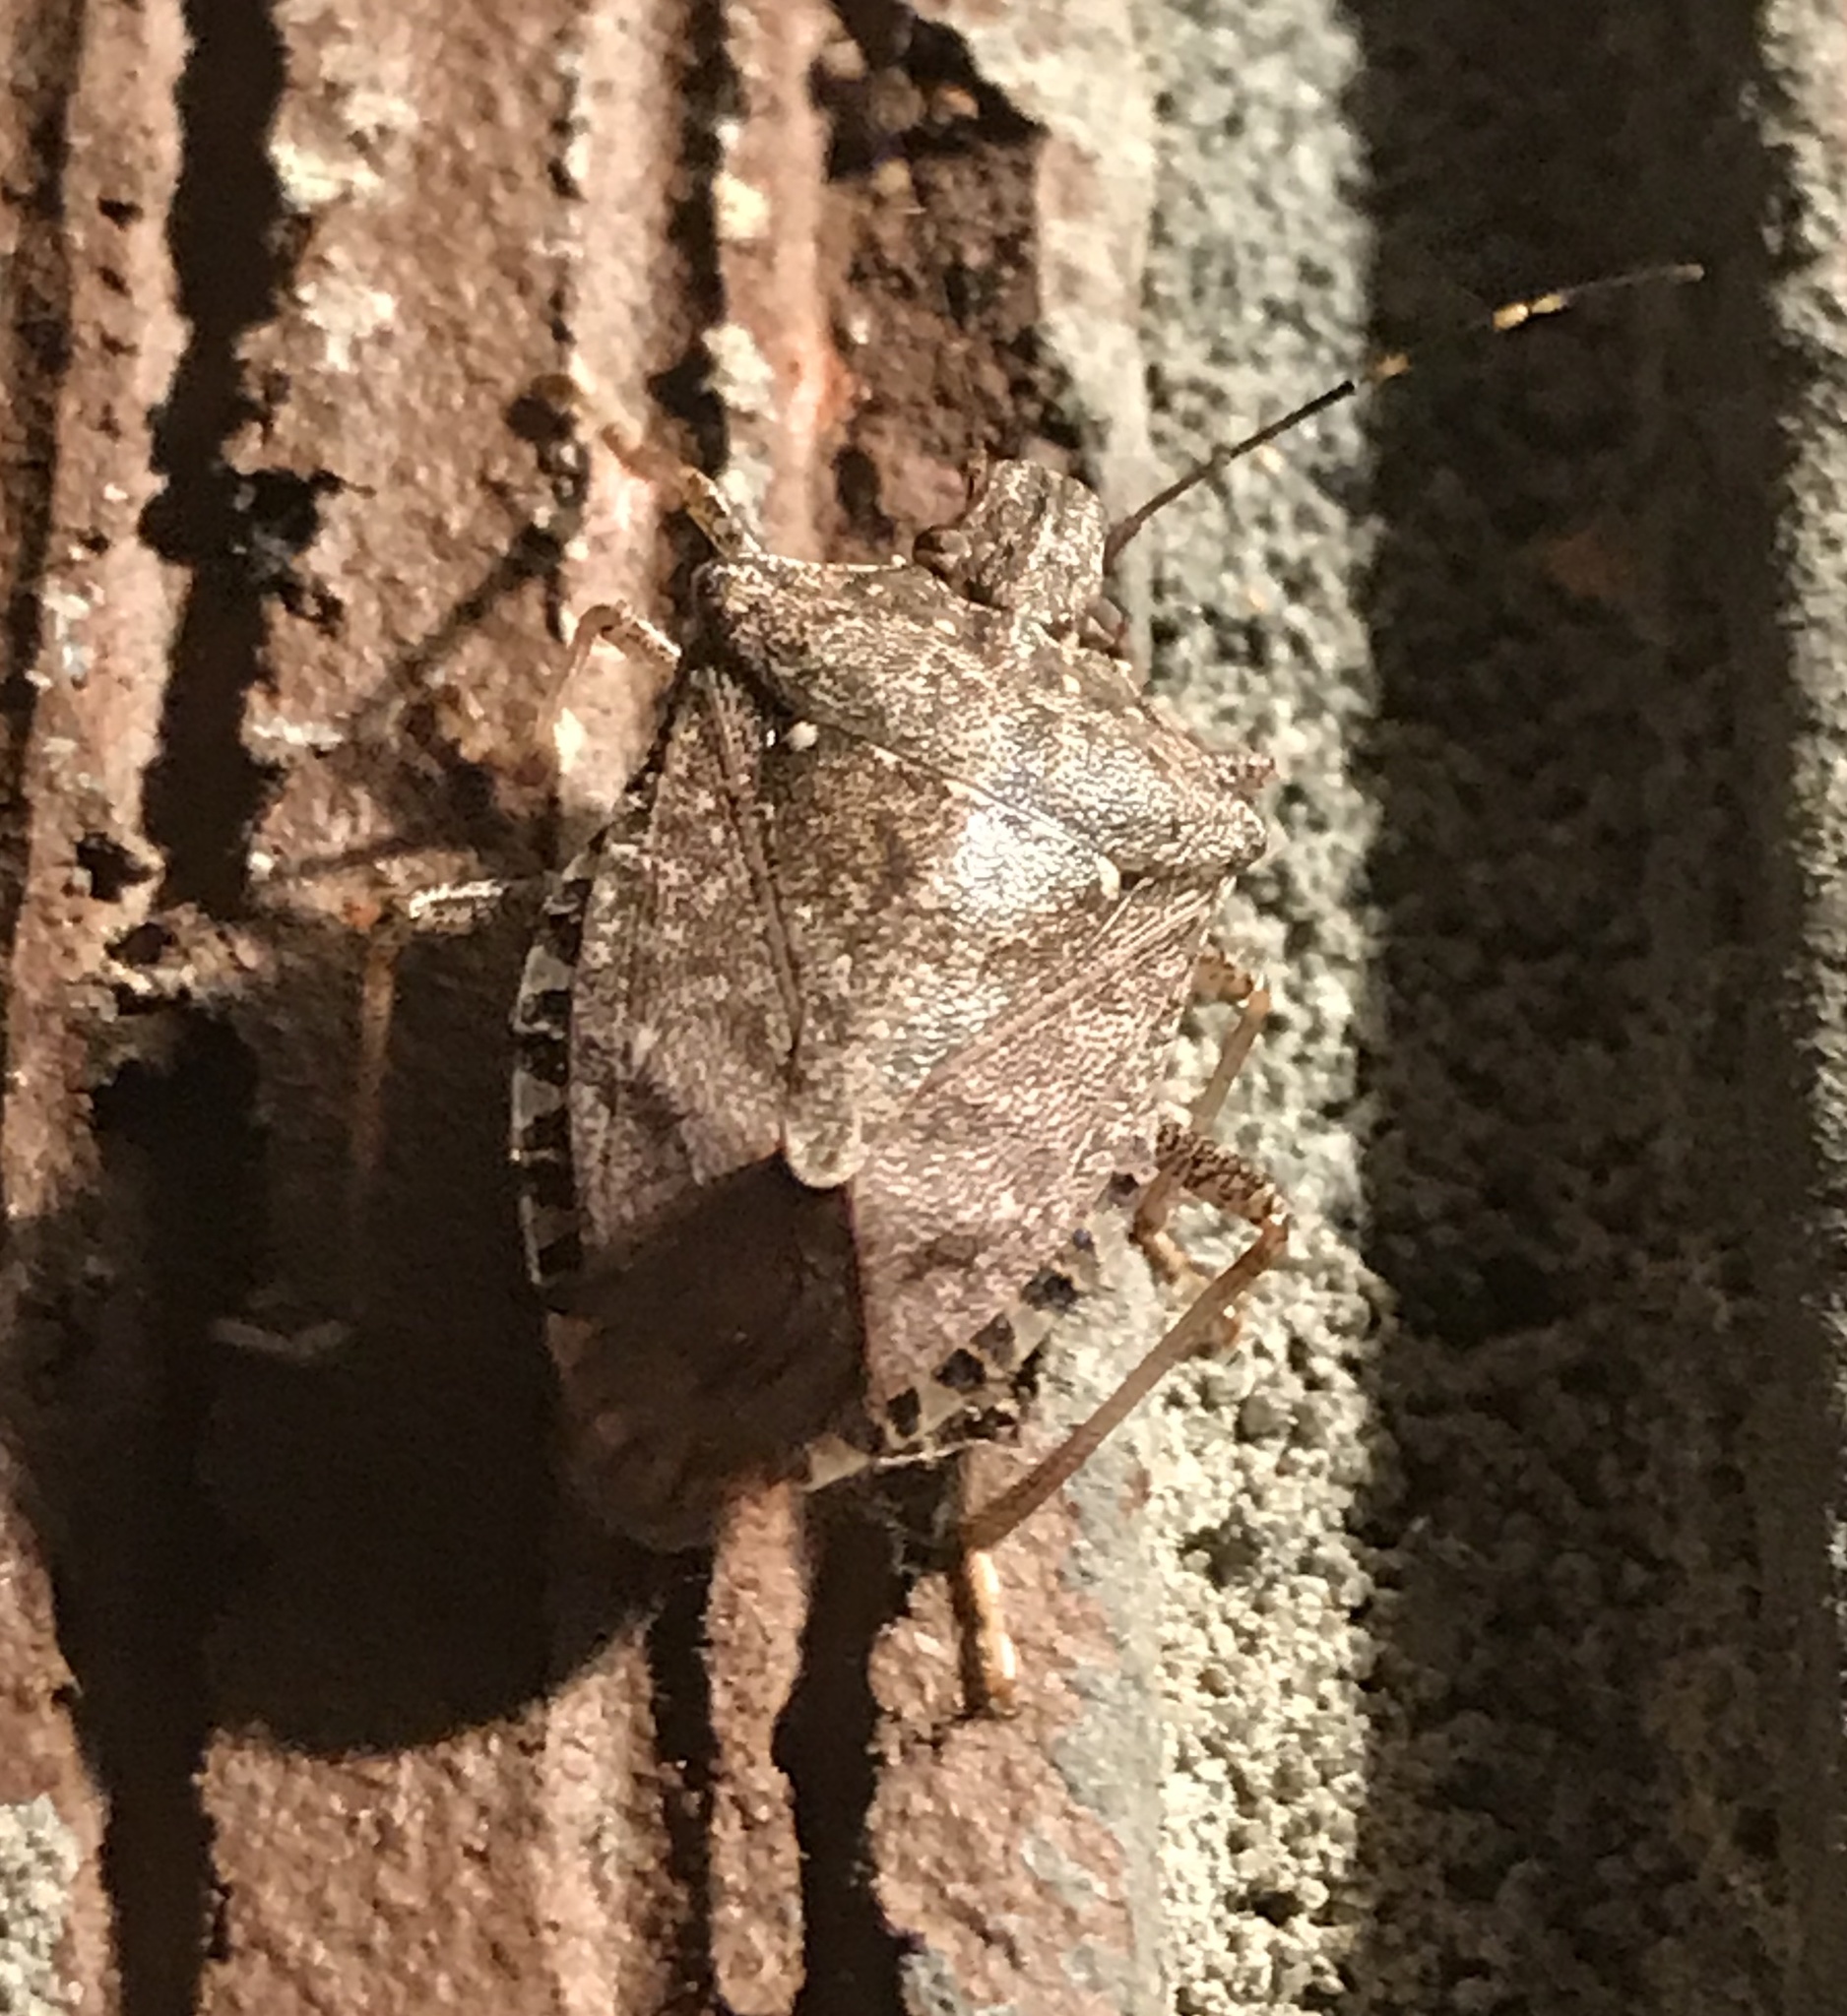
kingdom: Animalia
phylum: Arthropoda
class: Insecta
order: Hemiptera
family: Pentatomidae
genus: Halyomorpha
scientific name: Halyomorpha halys
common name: Brown marmorated stink bug
